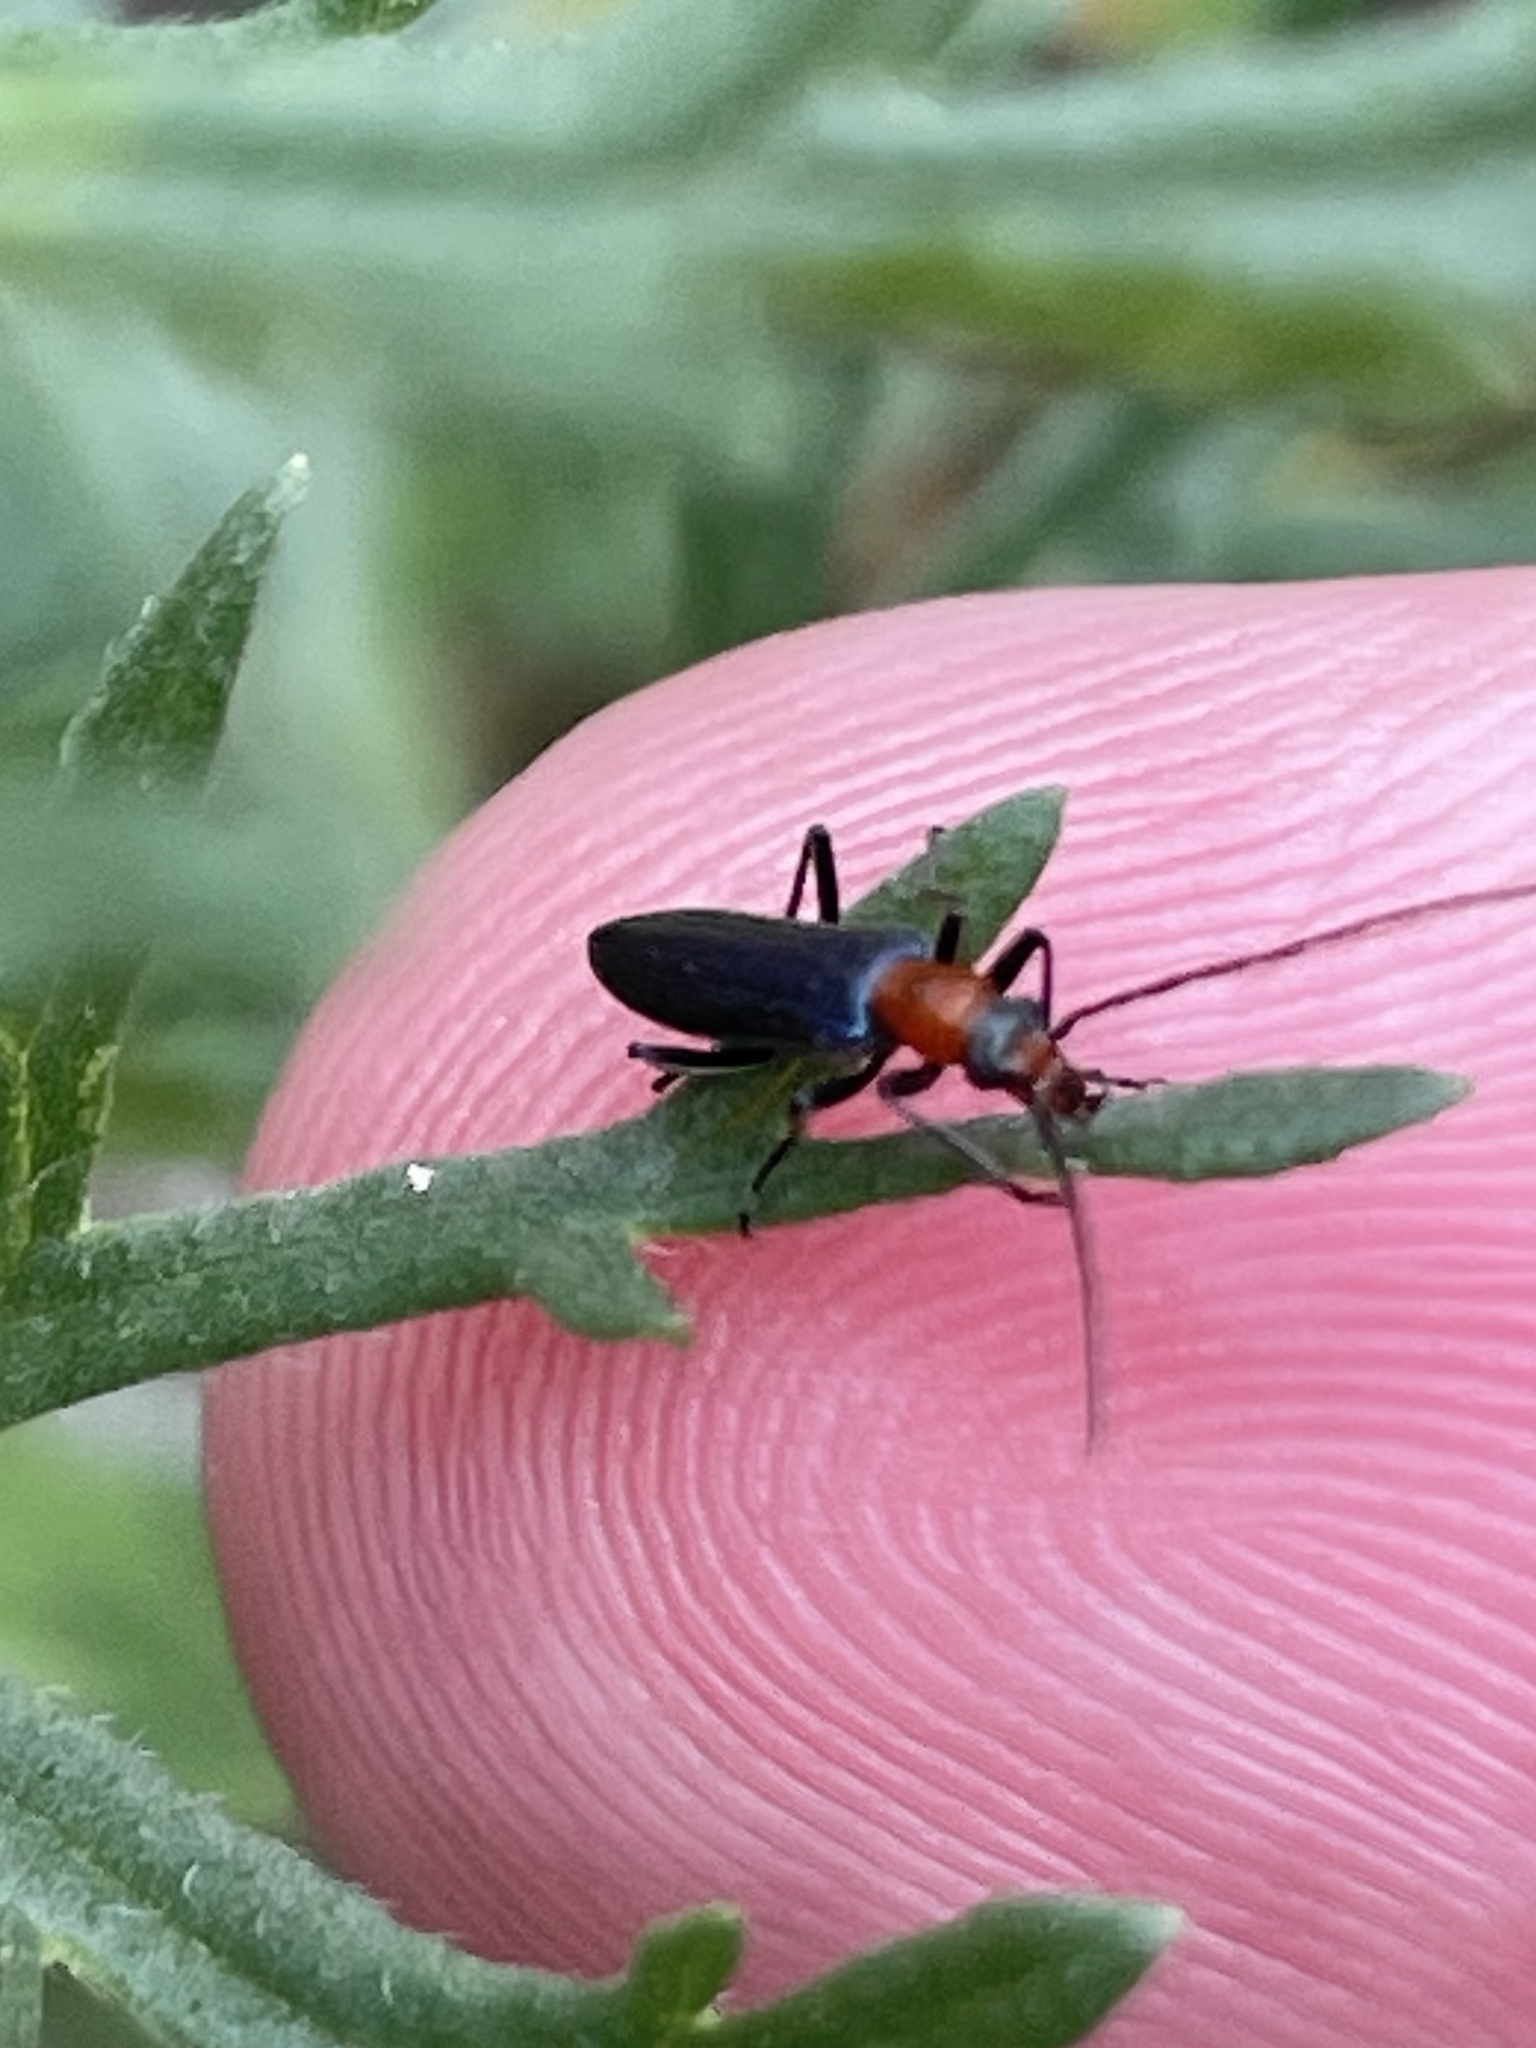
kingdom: Animalia
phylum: Arthropoda
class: Insecta
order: Coleoptera
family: Oedemeridae
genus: Heliocis
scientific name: Heliocis repanda
